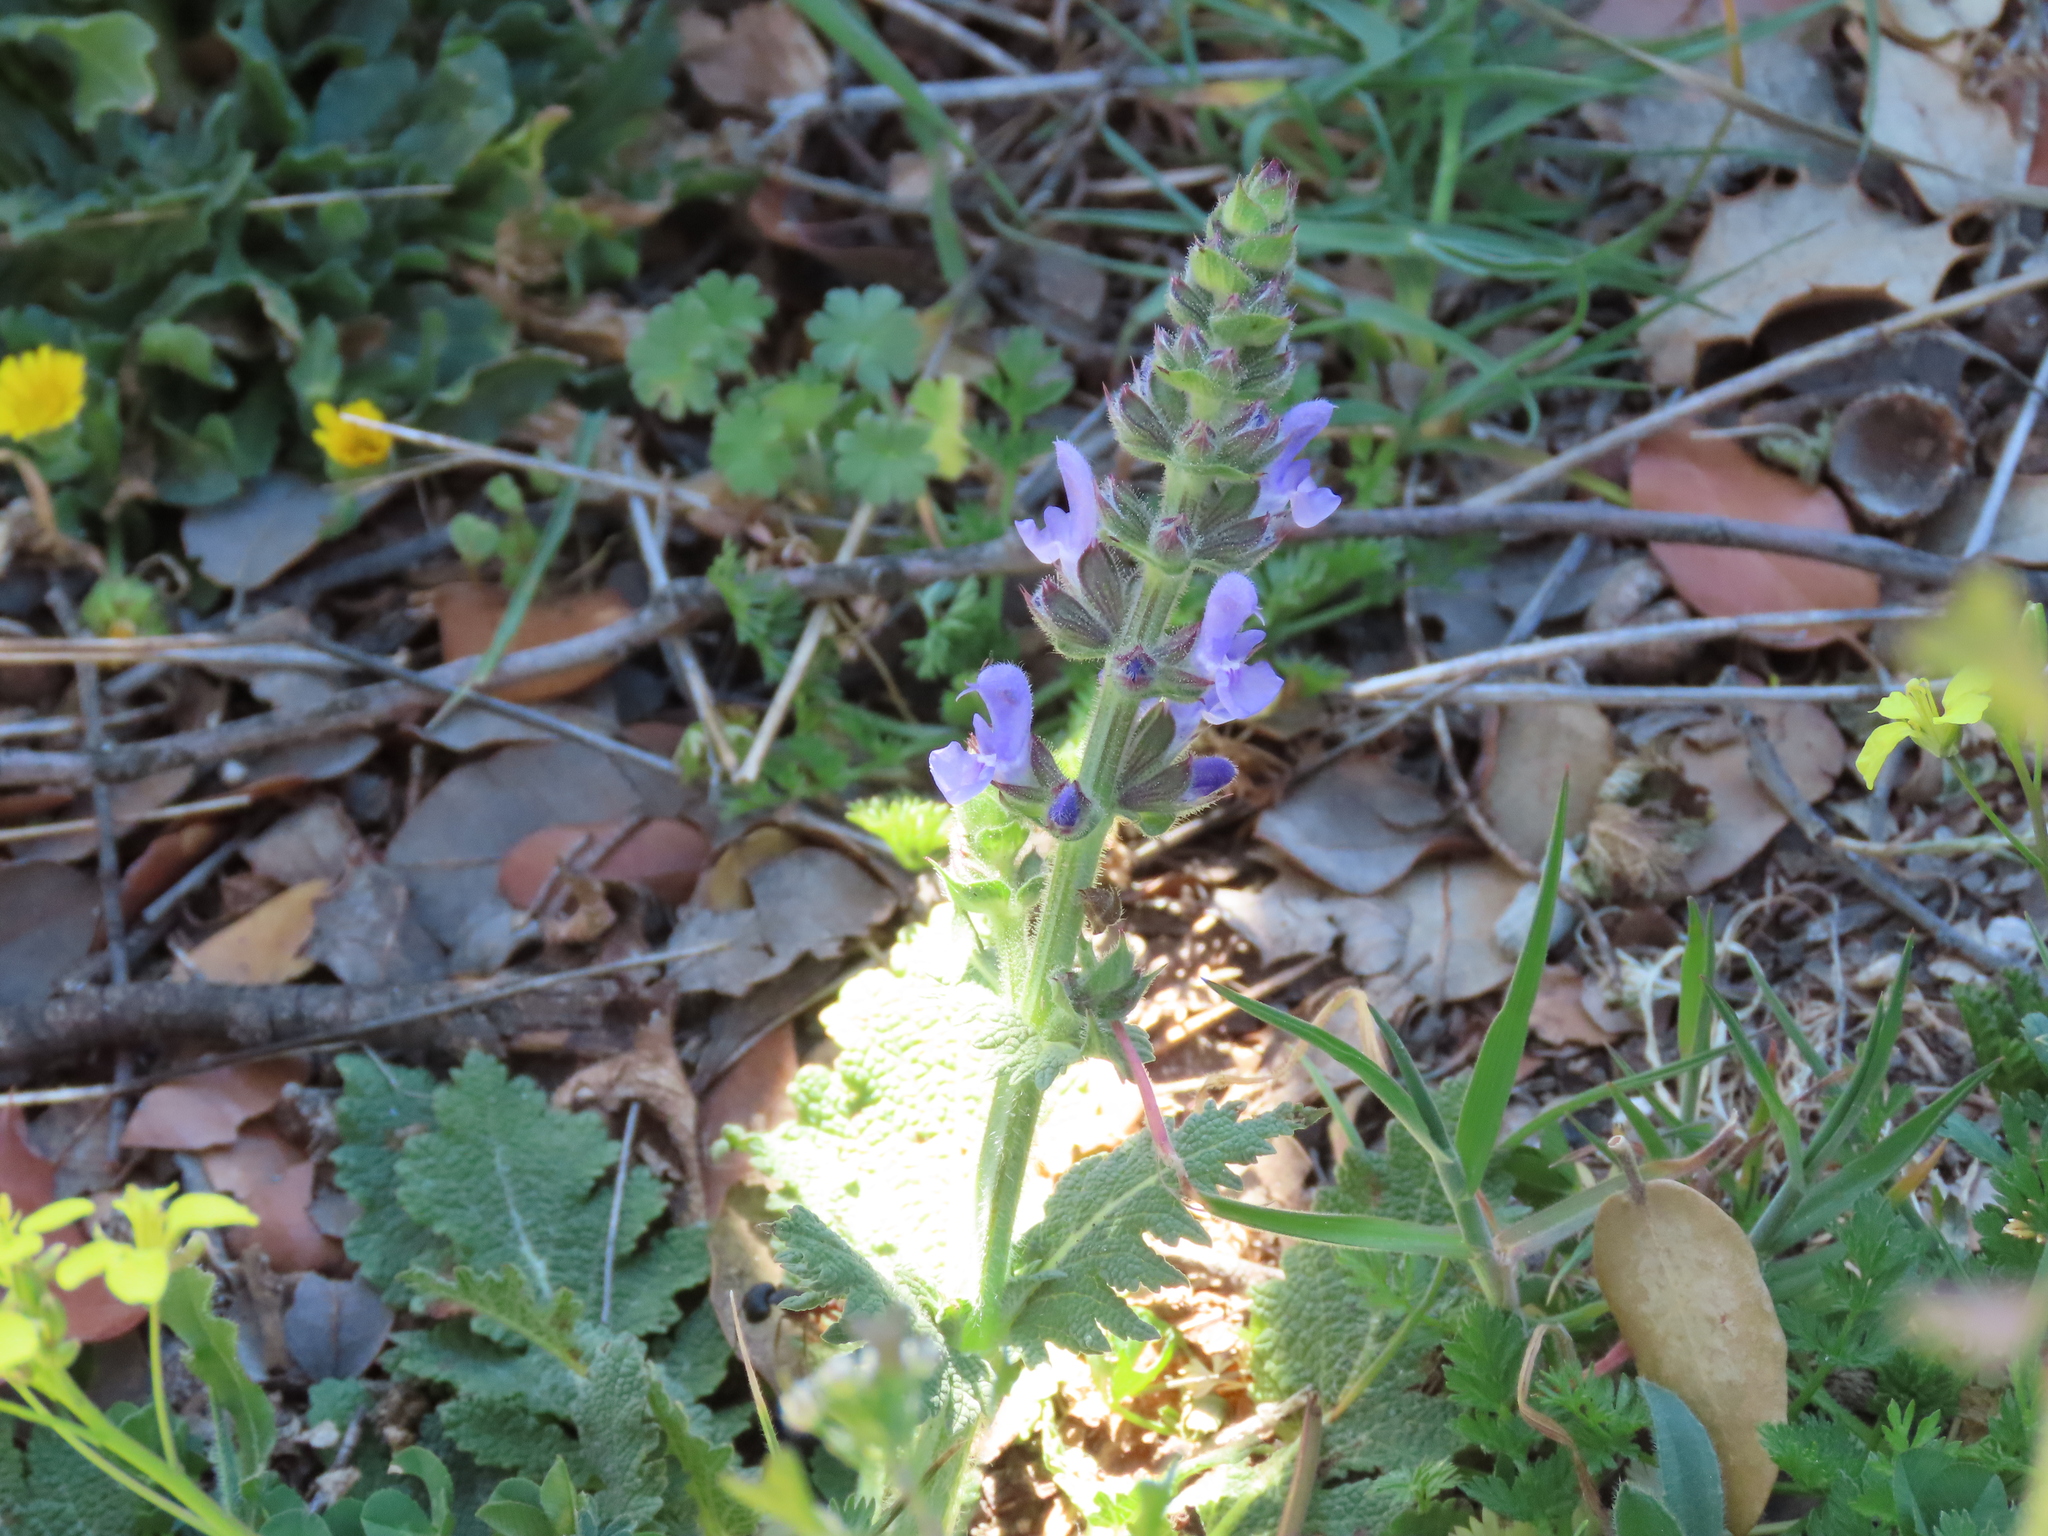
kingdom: Plantae
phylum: Tracheophyta
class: Magnoliopsida
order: Lamiales
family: Lamiaceae
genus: Salvia
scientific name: Salvia verbenaca
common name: Wild clary
